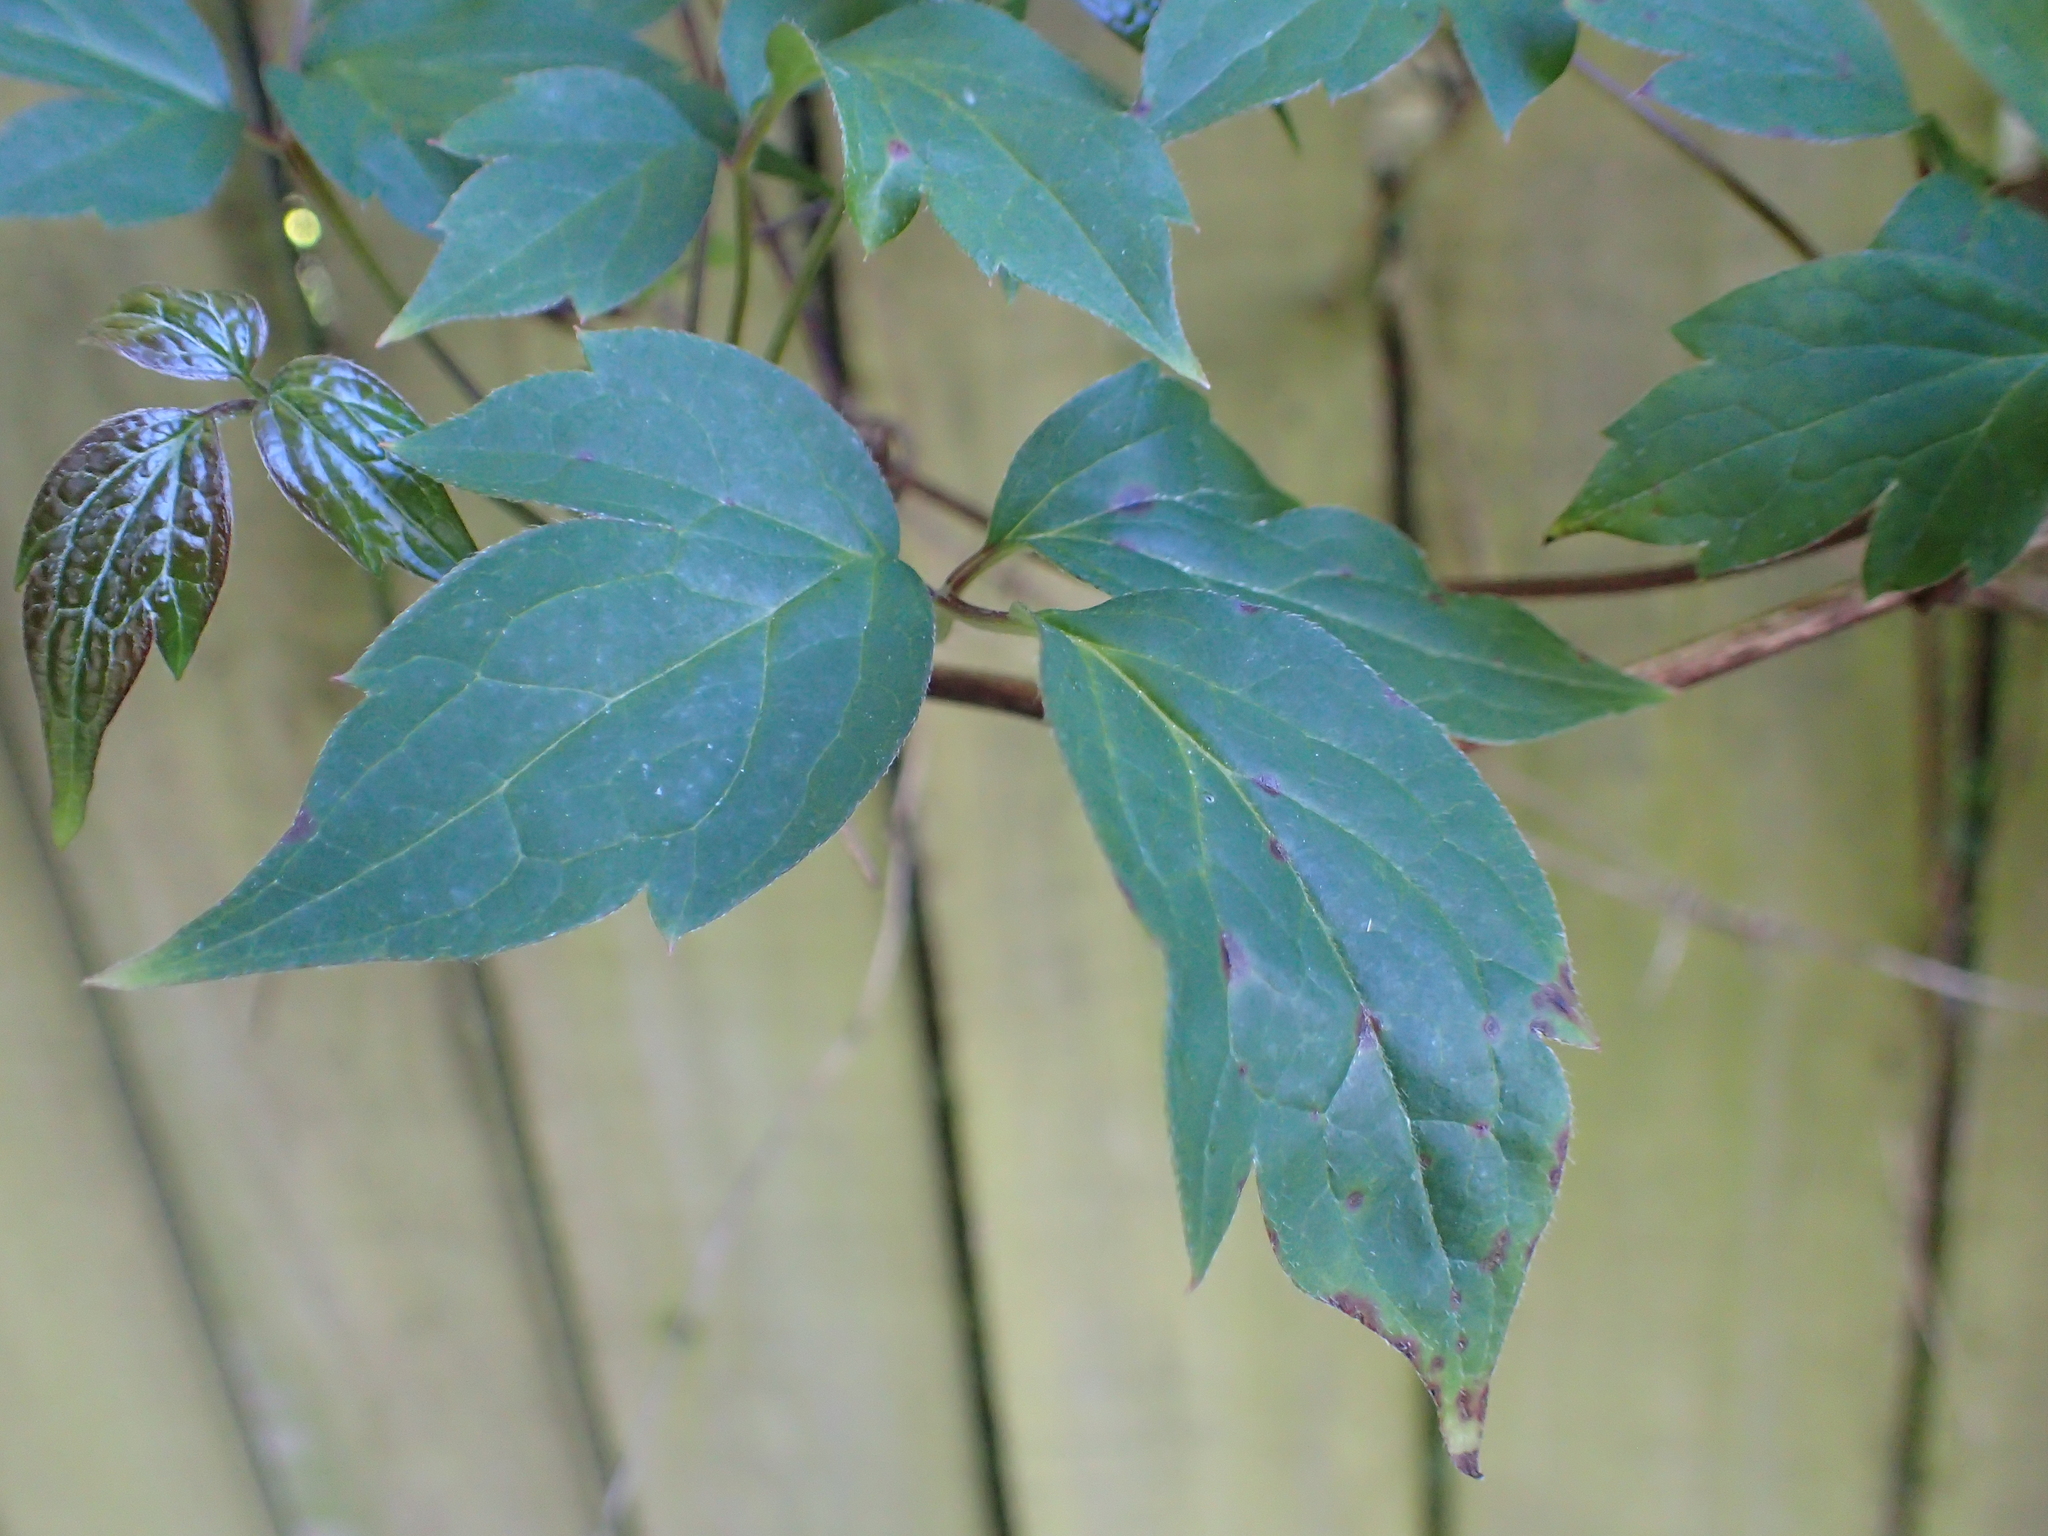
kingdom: Plantae
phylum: Tracheophyta
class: Magnoliopsida
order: Ranunculales
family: Ranunculaceae
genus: Clematis
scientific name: Clematis montana
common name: Himalayan clematis
